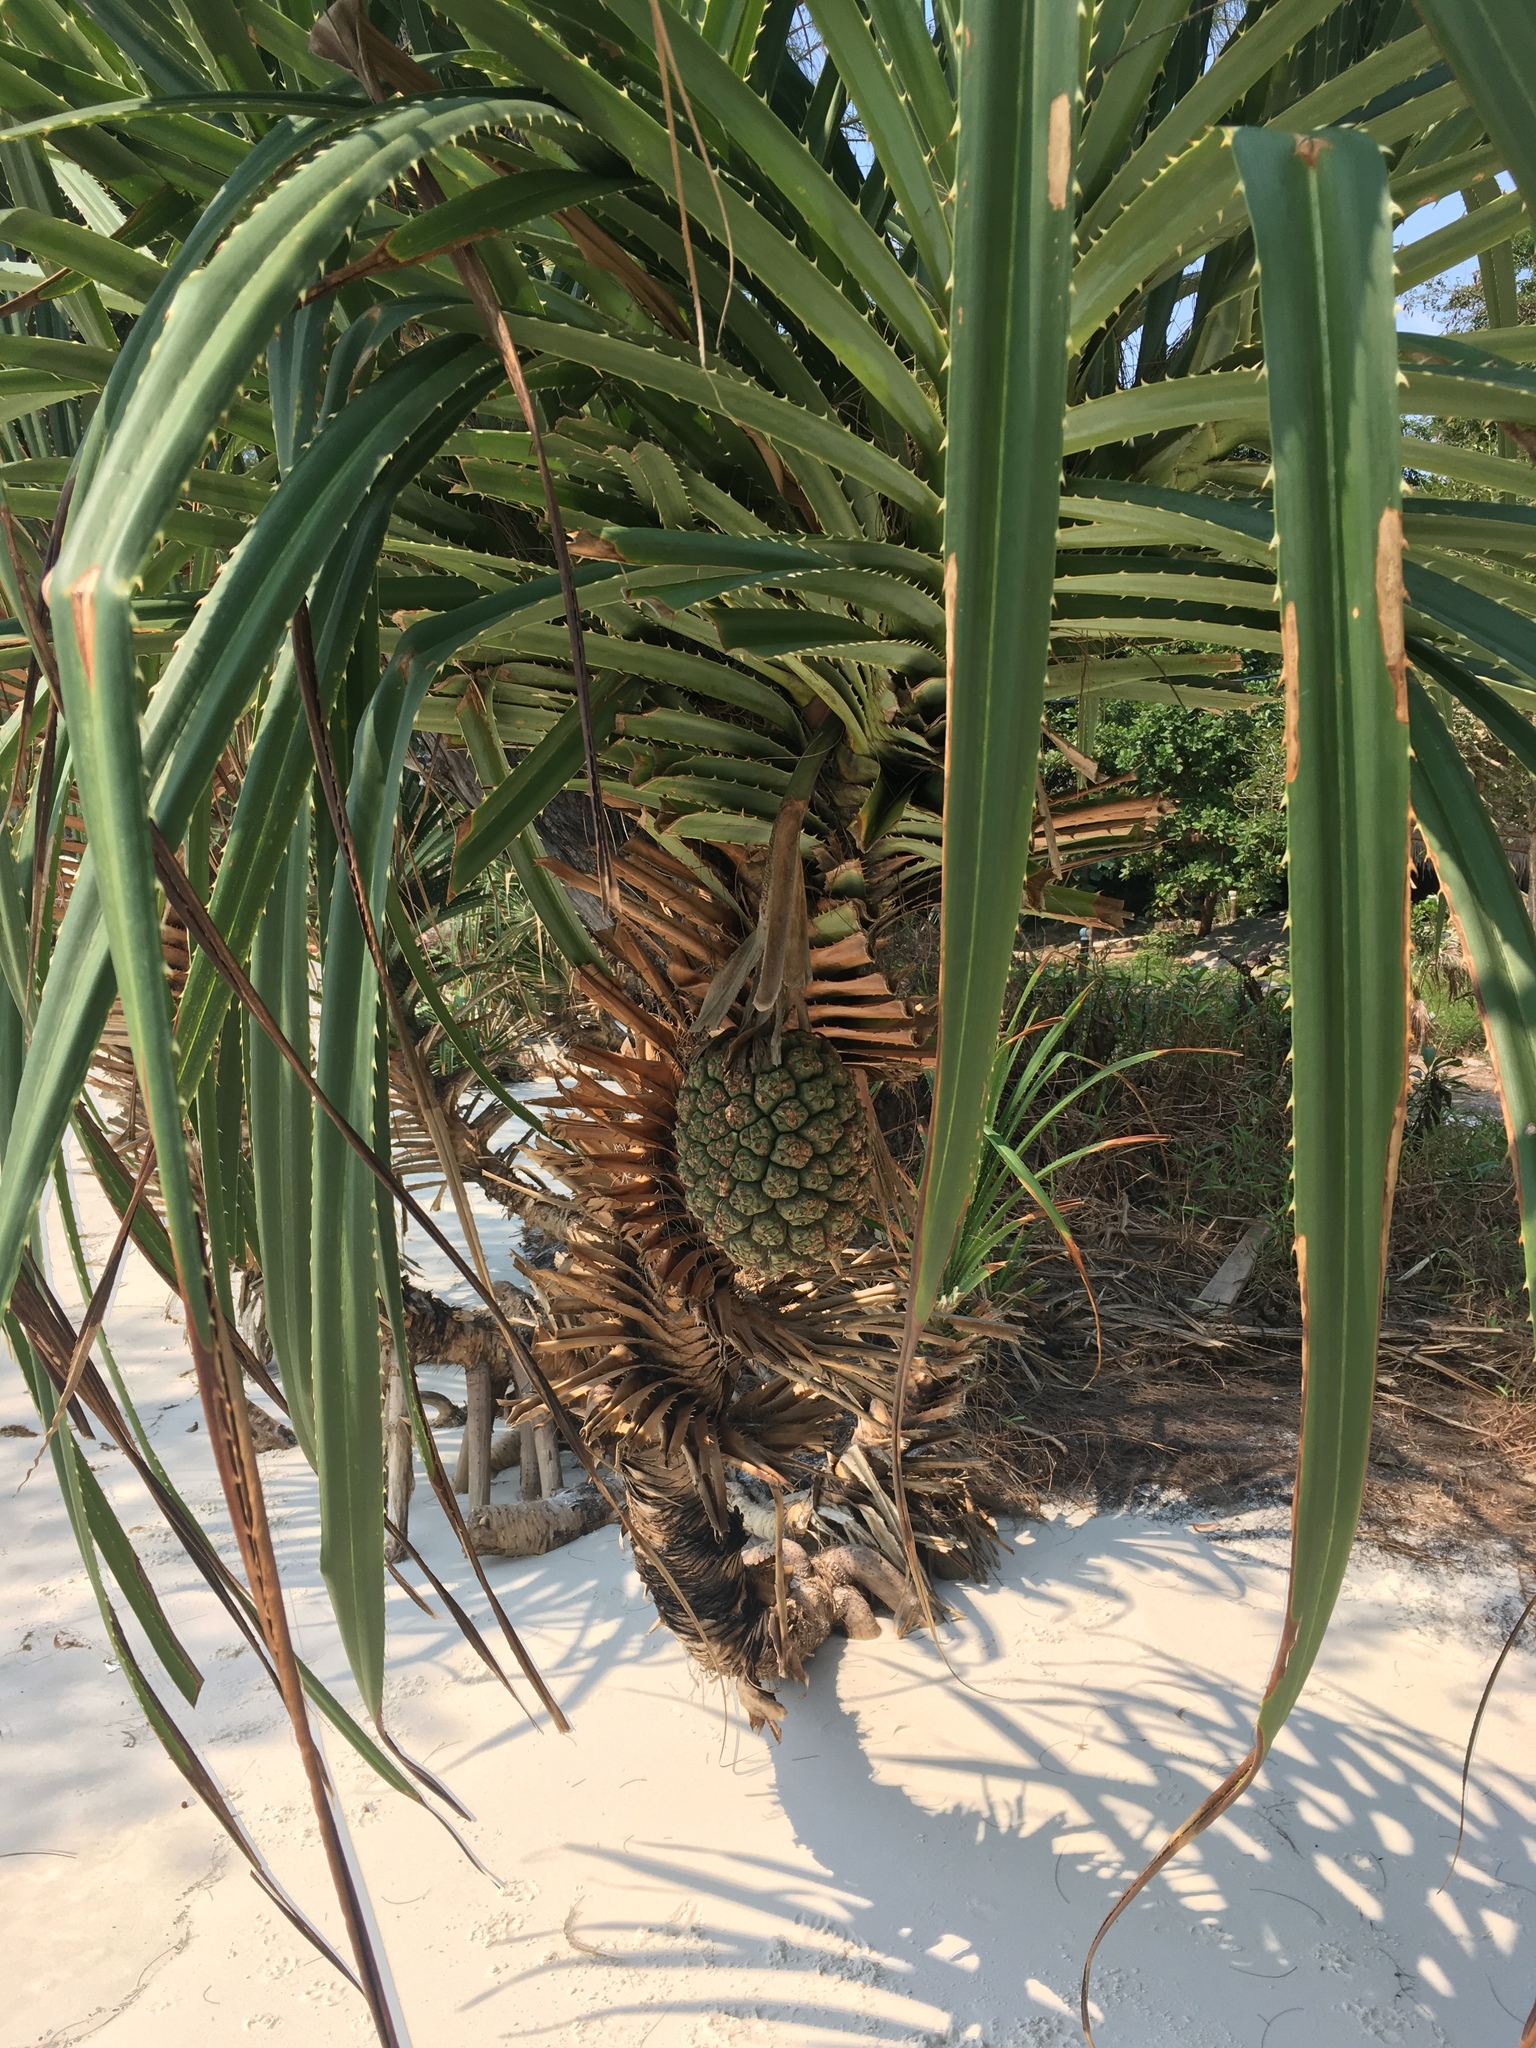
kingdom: Plantae
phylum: Tracheophyta
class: Liliopsida
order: Pandanales
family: Pandanaceae
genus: Pandanus
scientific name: Pandanus tectorius
